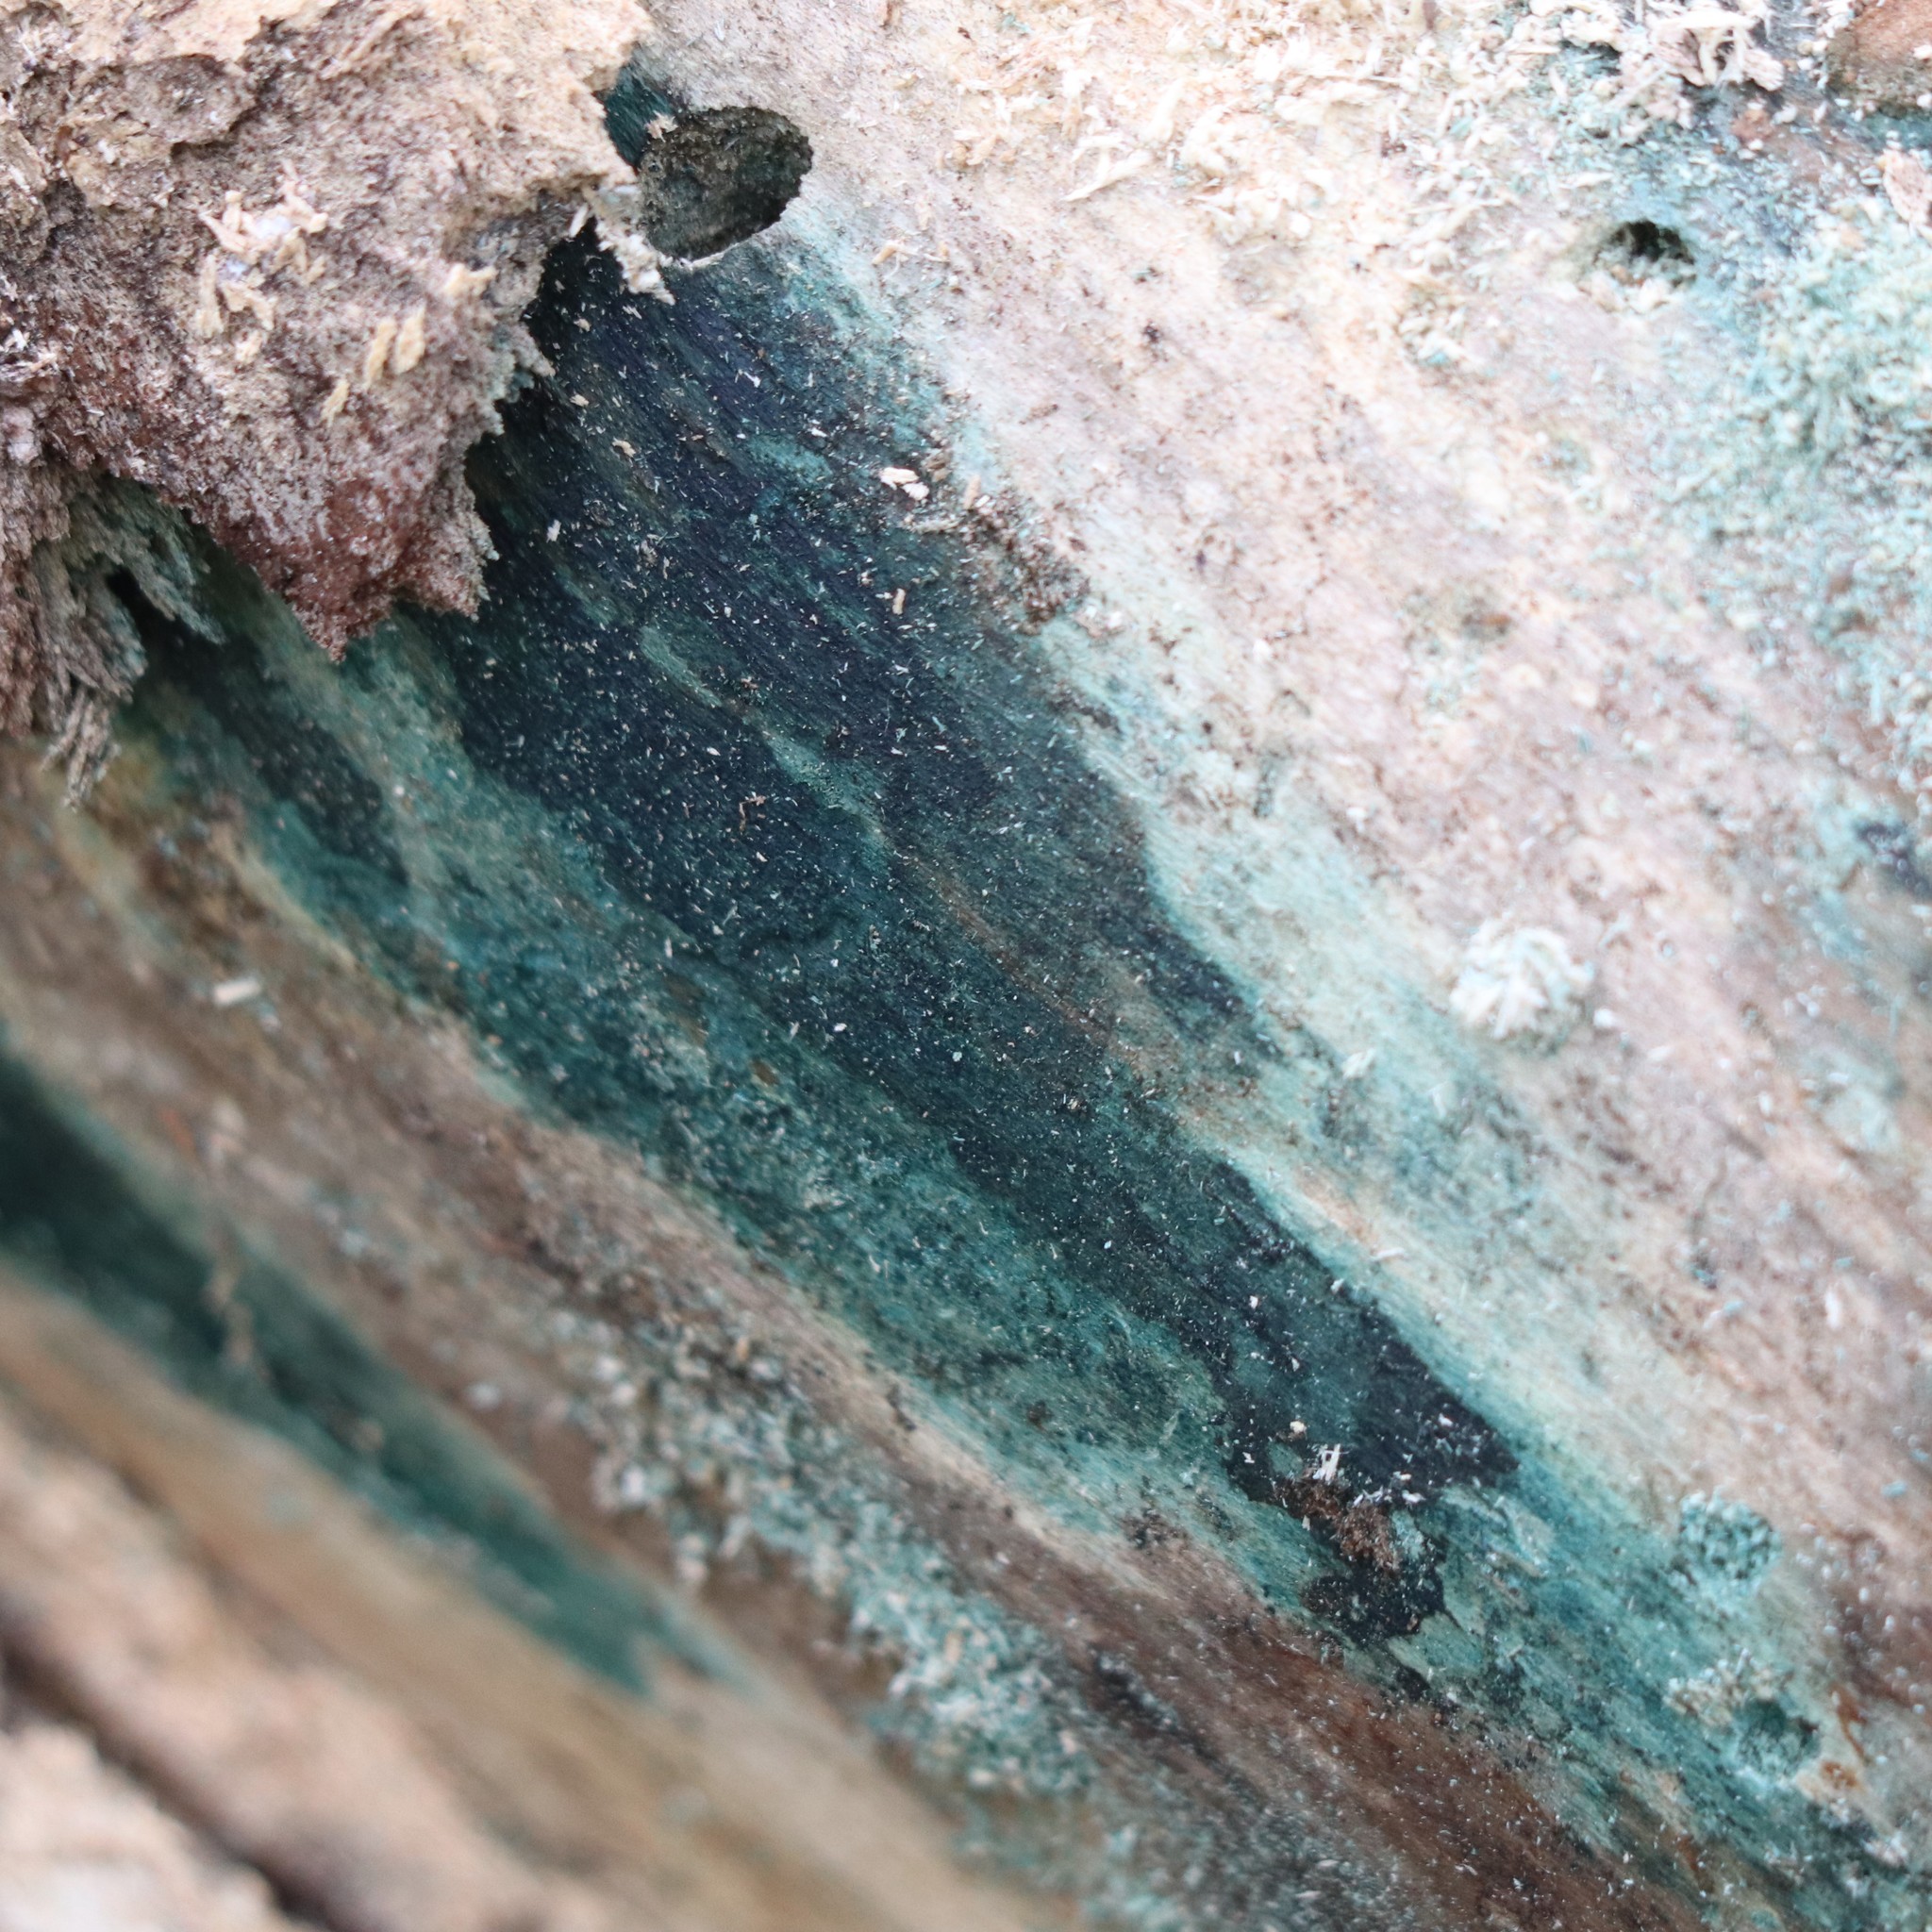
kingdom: Fungi
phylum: Ascomycota
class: Leotiomycetes
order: Helotiales
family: Chlorociboriaceae
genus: Chlorociboria
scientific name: Chlorociboria
